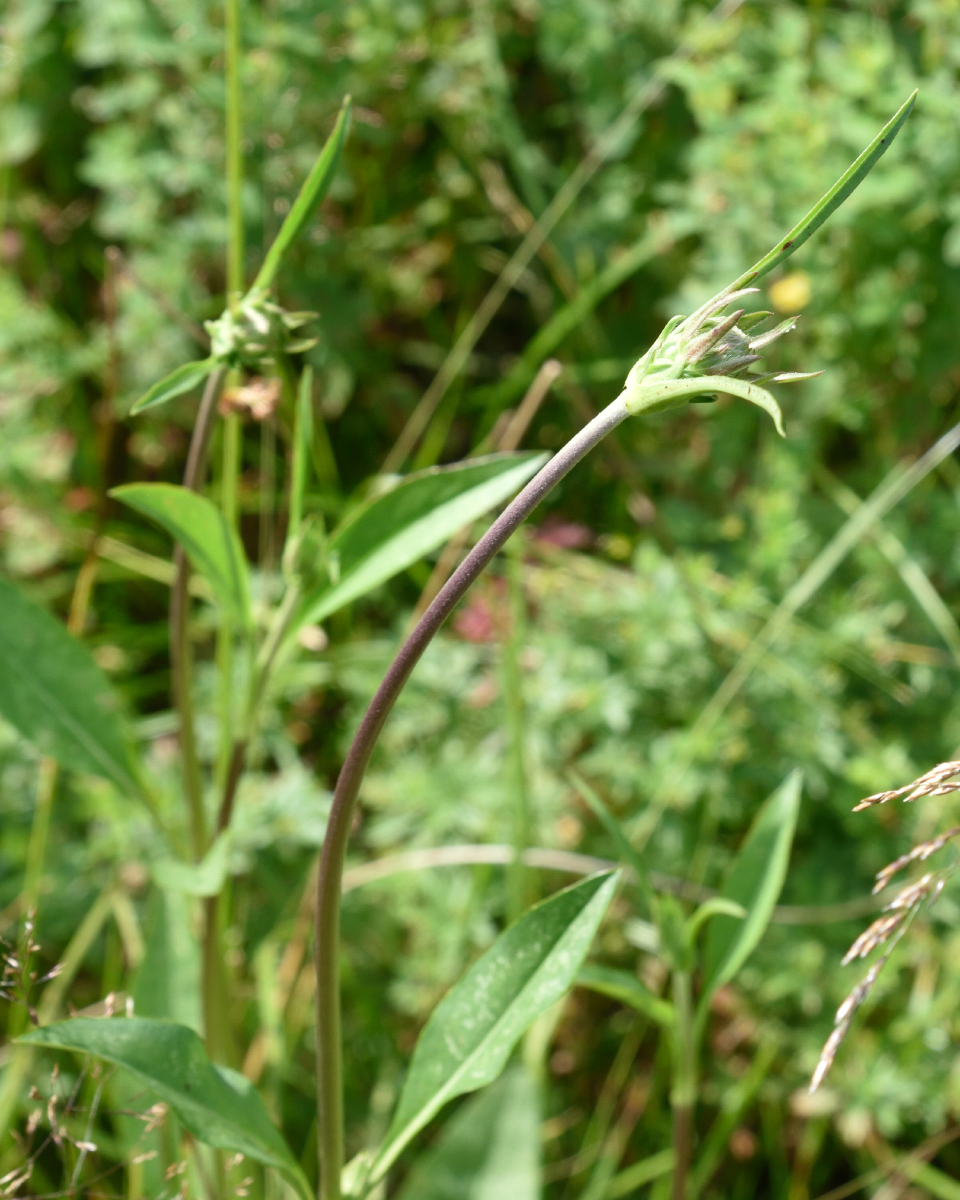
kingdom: Plantae
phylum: Tracheophyta
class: Magnoliopsida
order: Dipsacales
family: Caprifoliaceae
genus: Succisa
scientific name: Succisa pratensis
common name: Devil's-bit
